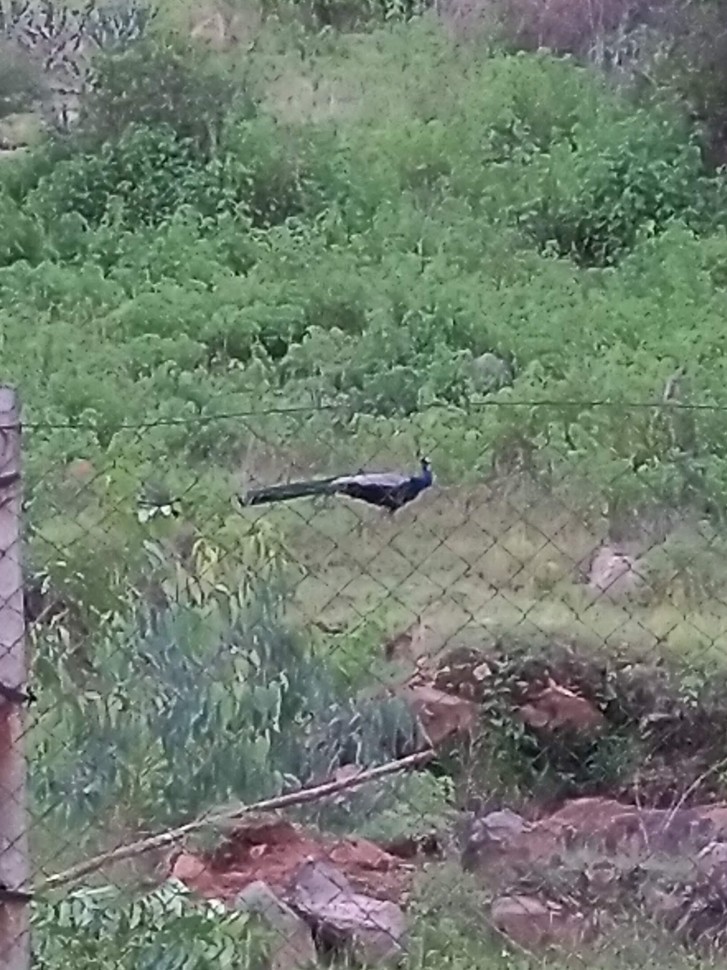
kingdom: Animalia
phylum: Chordata
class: Aves
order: Galliformes
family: Phasianidae
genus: Pavo
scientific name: Pavo cristatus
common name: Indian peafowl
